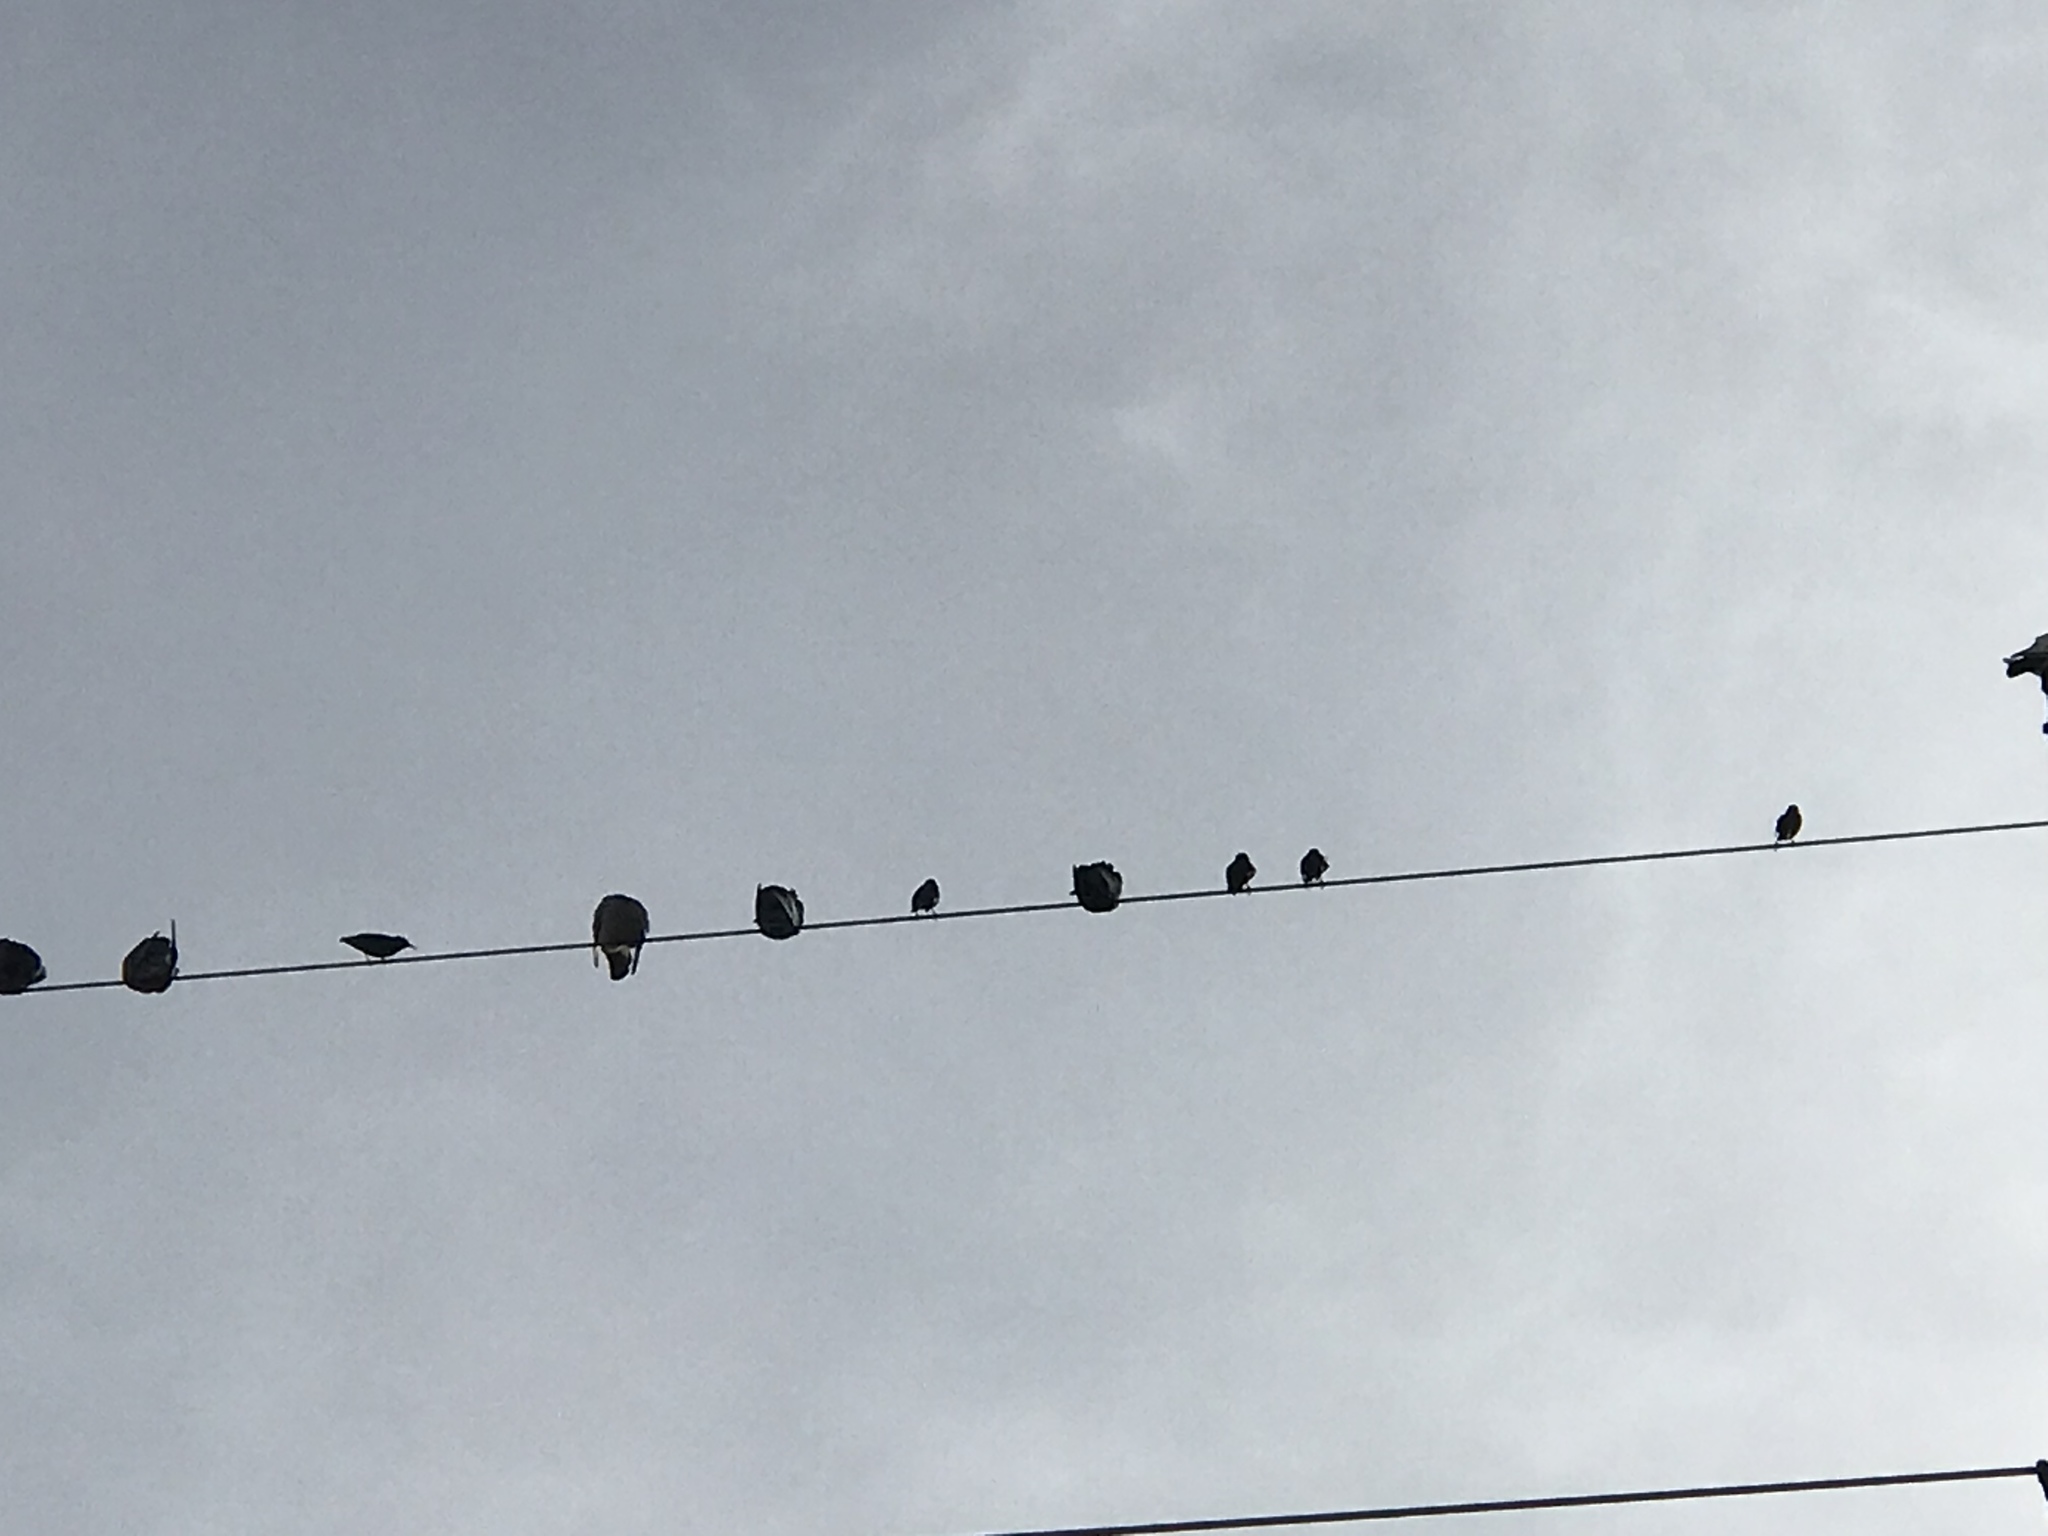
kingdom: Animalia
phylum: Chordata
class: Aves
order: Columbiformes
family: Columbidae
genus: Columba
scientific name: Columba livia
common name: Rock pigeon
